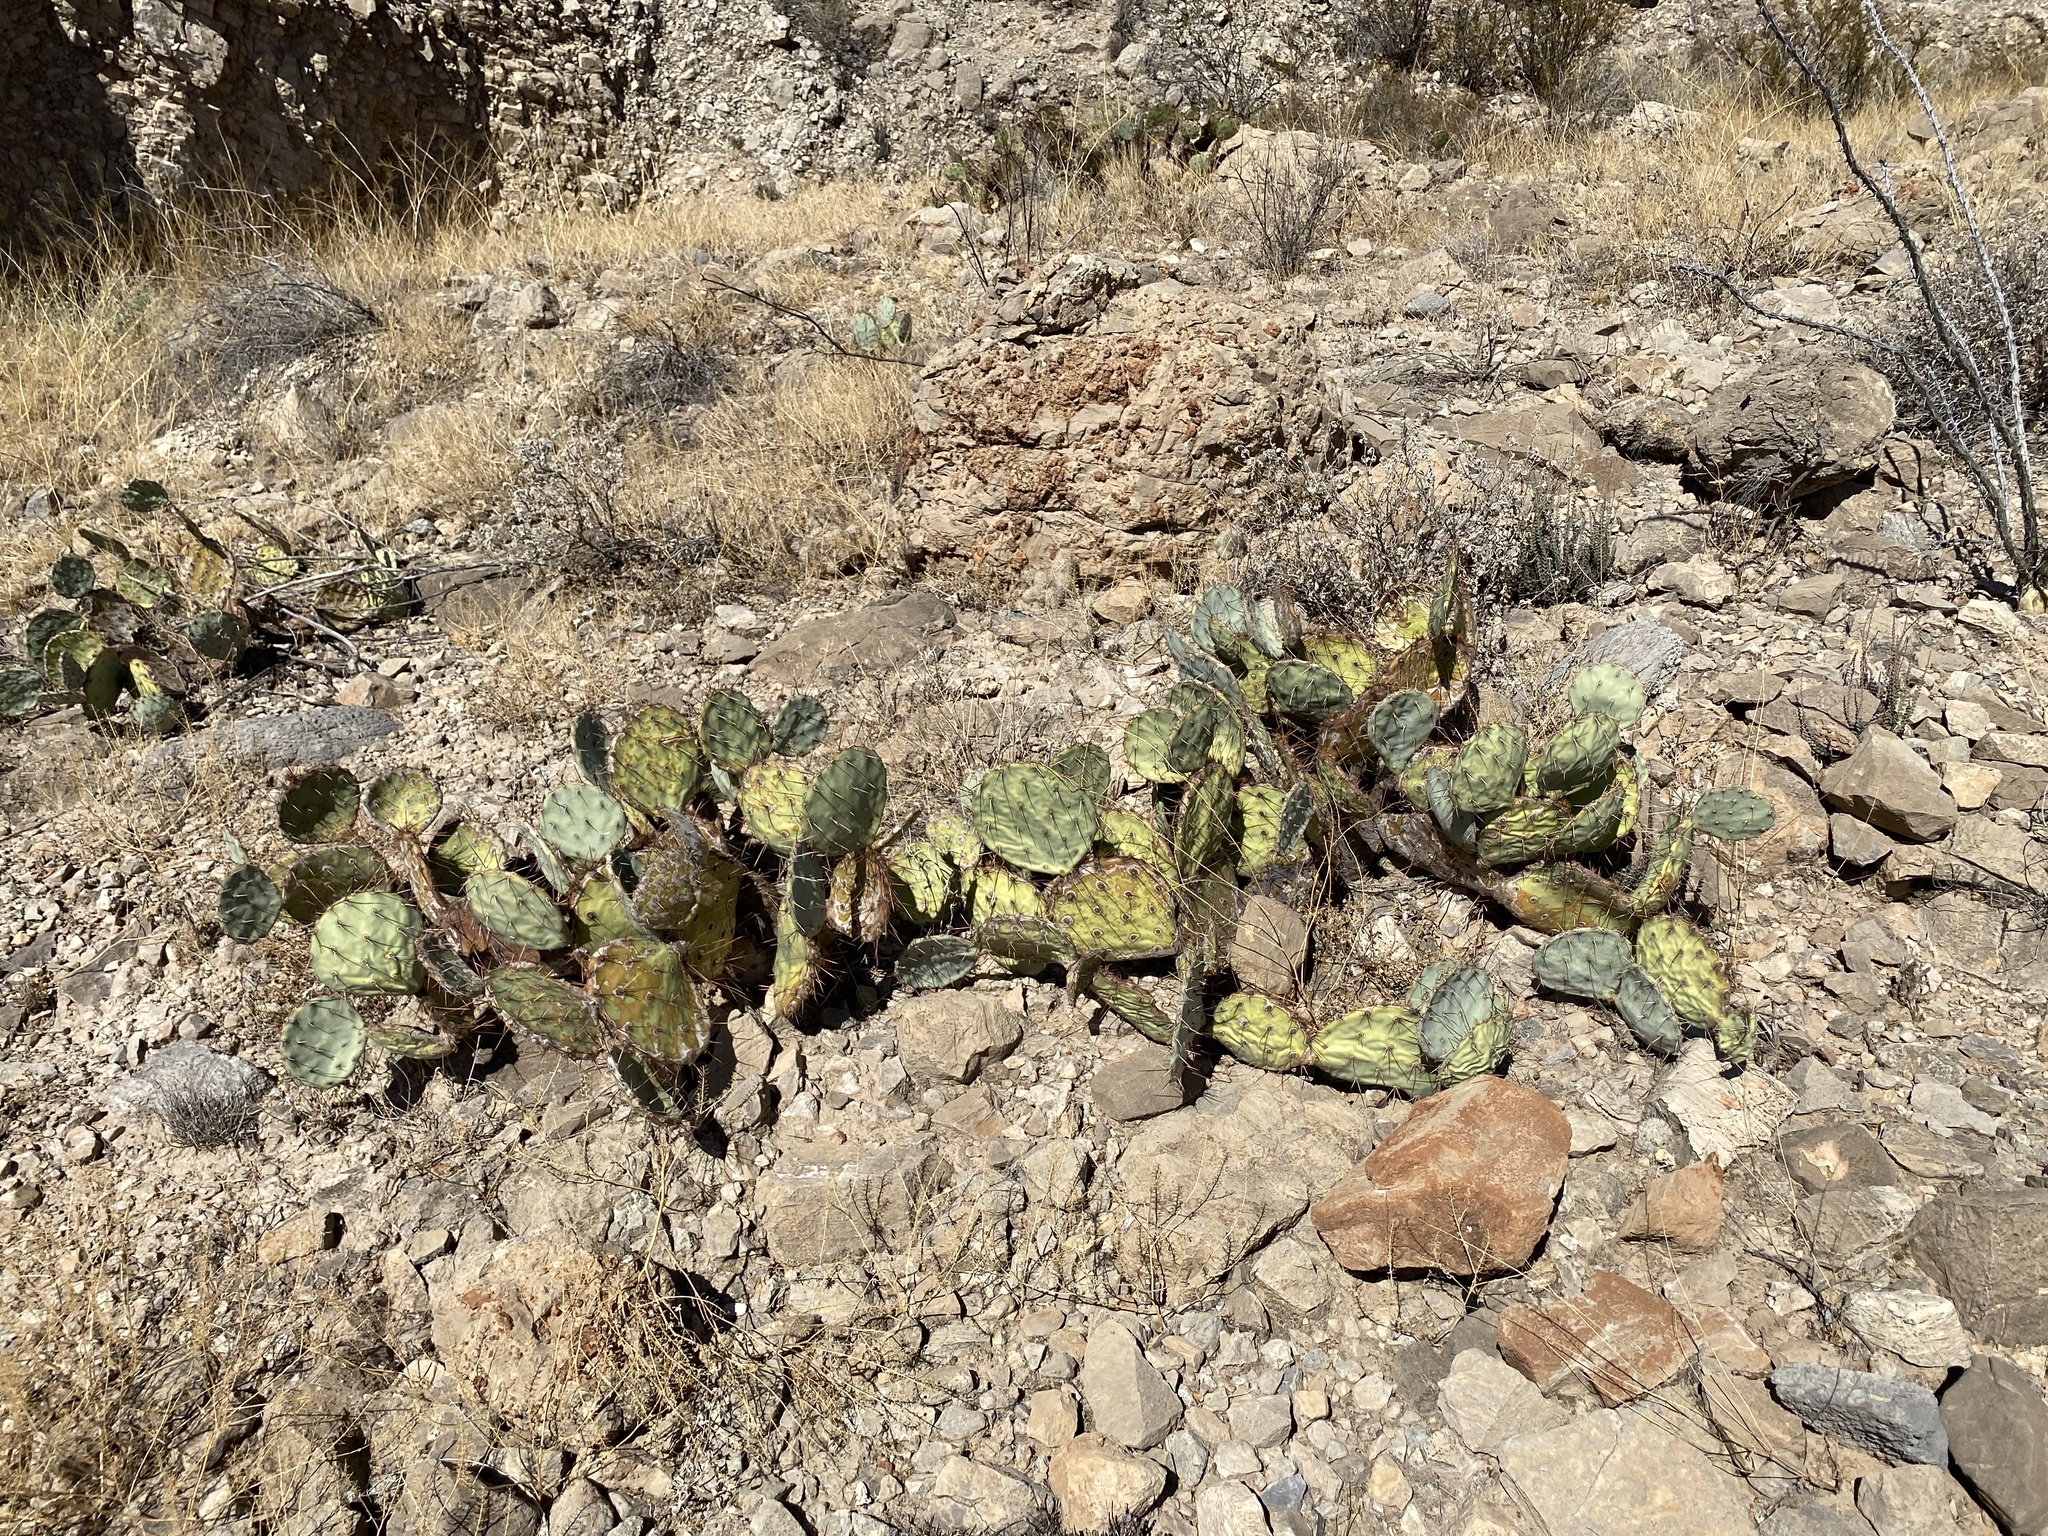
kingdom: Plantae
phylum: Tracheophyta
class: Magnoliopsida
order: Caryophyllales
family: Cactaceae
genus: Opuntia
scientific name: Opuntia engelmannii
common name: Cactus-apple
